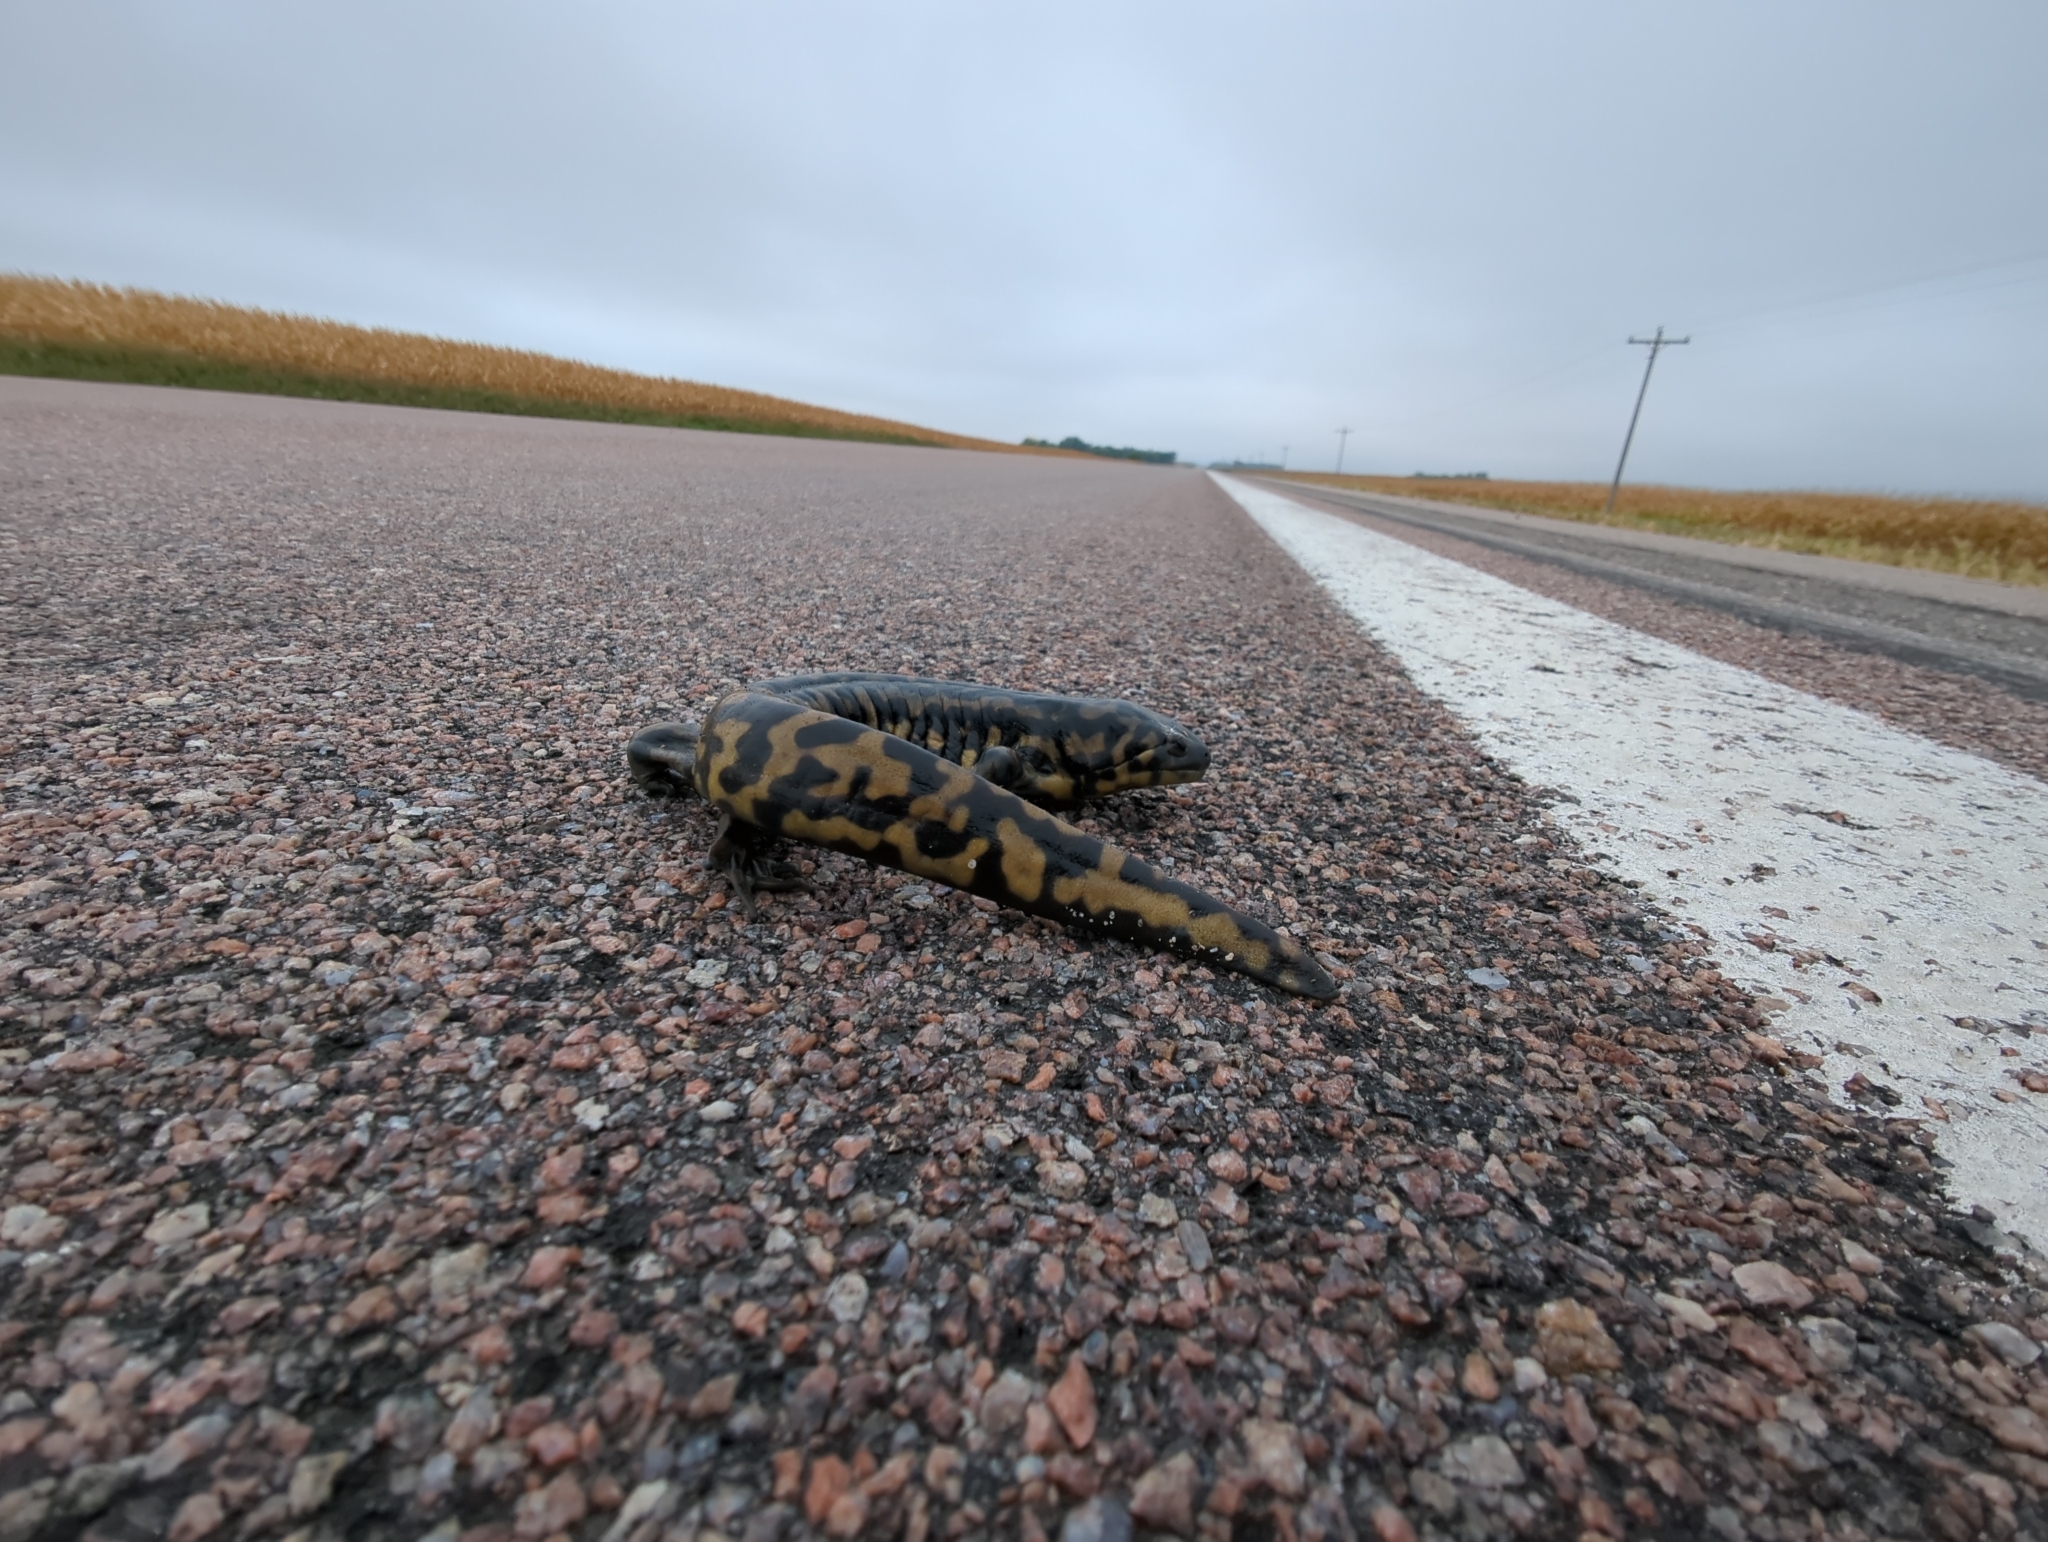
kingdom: Animalia
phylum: Chordata
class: Amphibia
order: Caudata
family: Ambystomatidae
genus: Ambystoma
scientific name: Ambystoma tigrinum
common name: Tiger salamander
